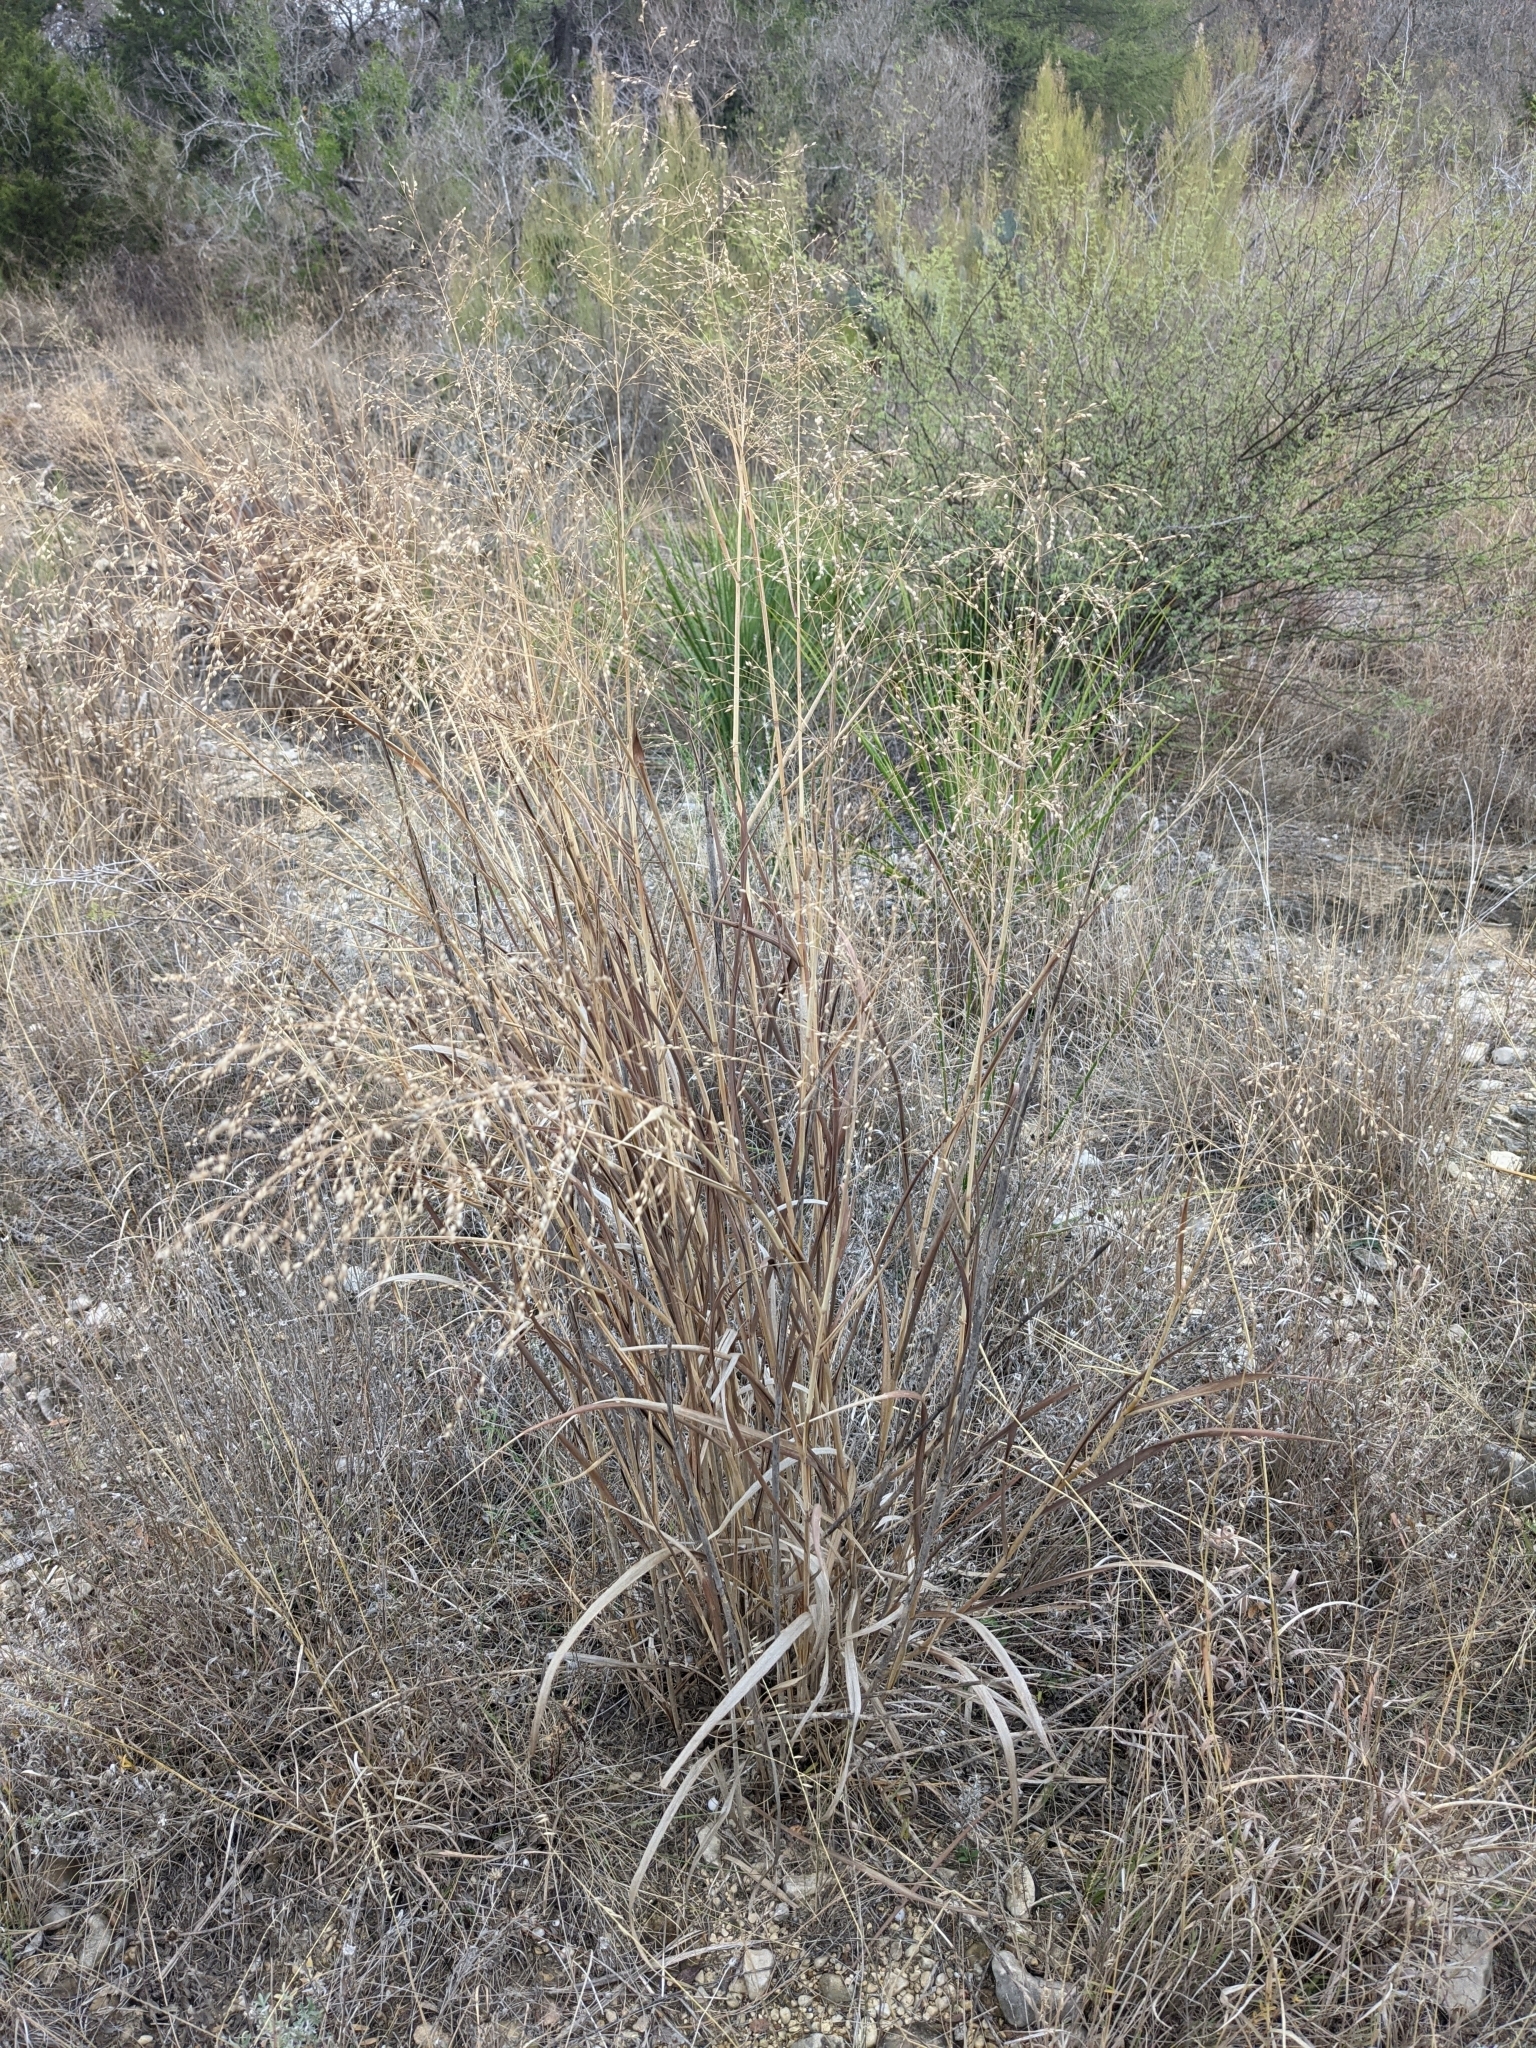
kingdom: Plantae
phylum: Tracheophyta
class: Liliopsida
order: Poales
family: Poaceae
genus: Panicum
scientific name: Panicum virgatum
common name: Switchgrass
